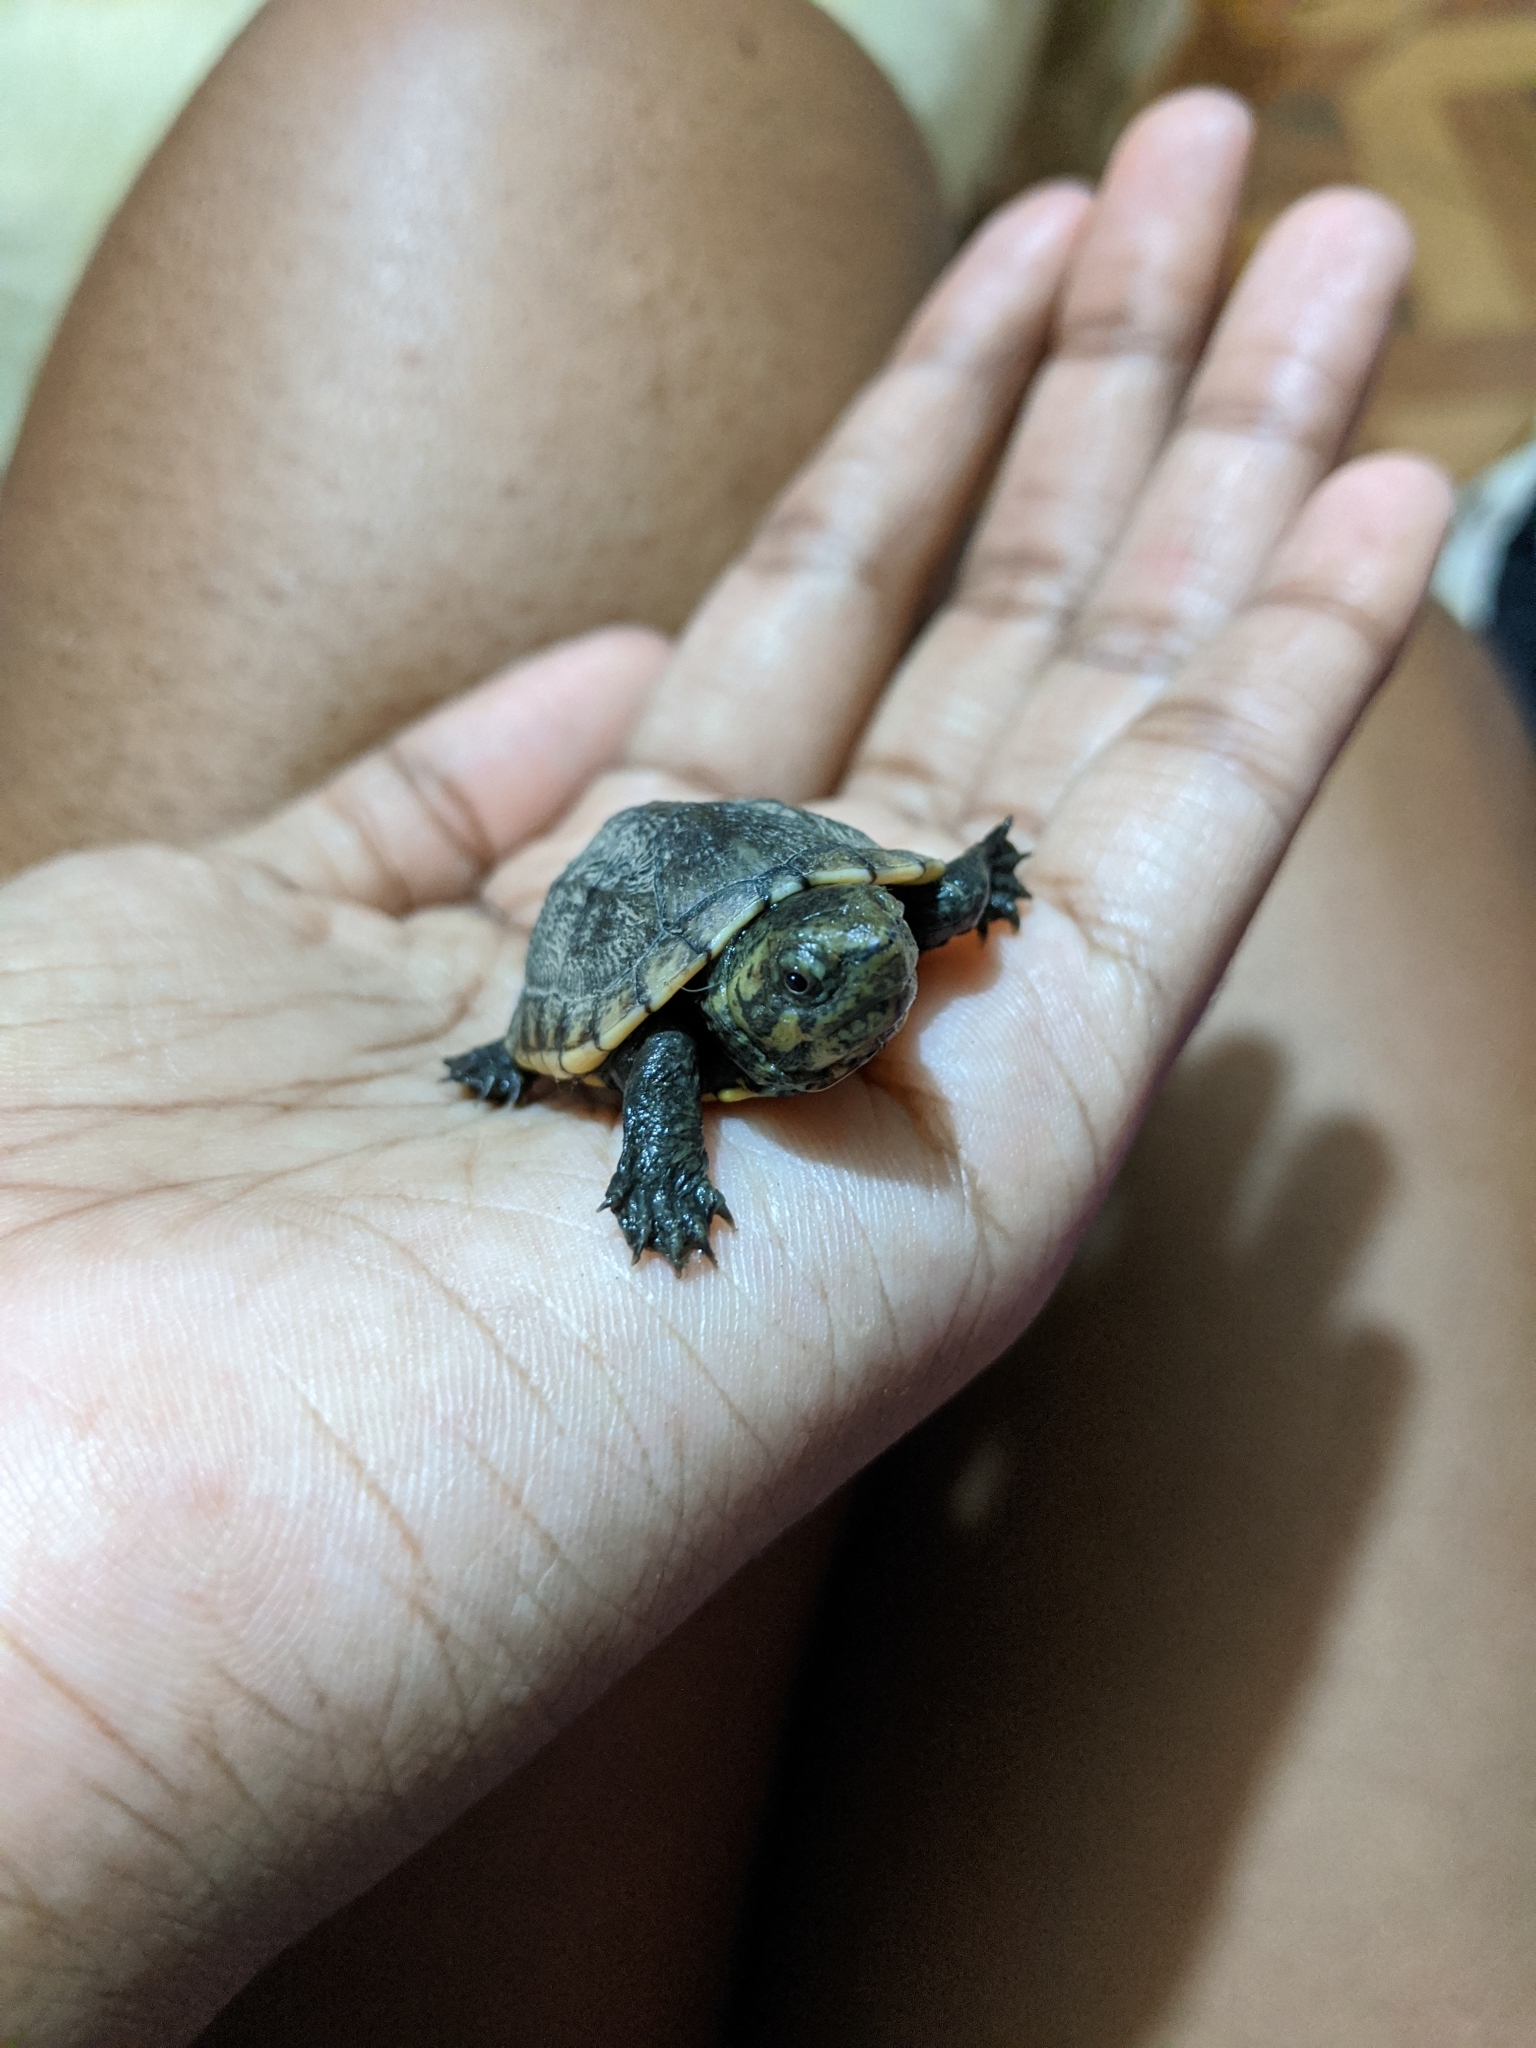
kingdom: Animalia
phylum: Chordata
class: Testudines
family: Kinosternidae
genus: Kinosternon
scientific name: Kinosternon scorpioides
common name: Scorpion mud turtle
